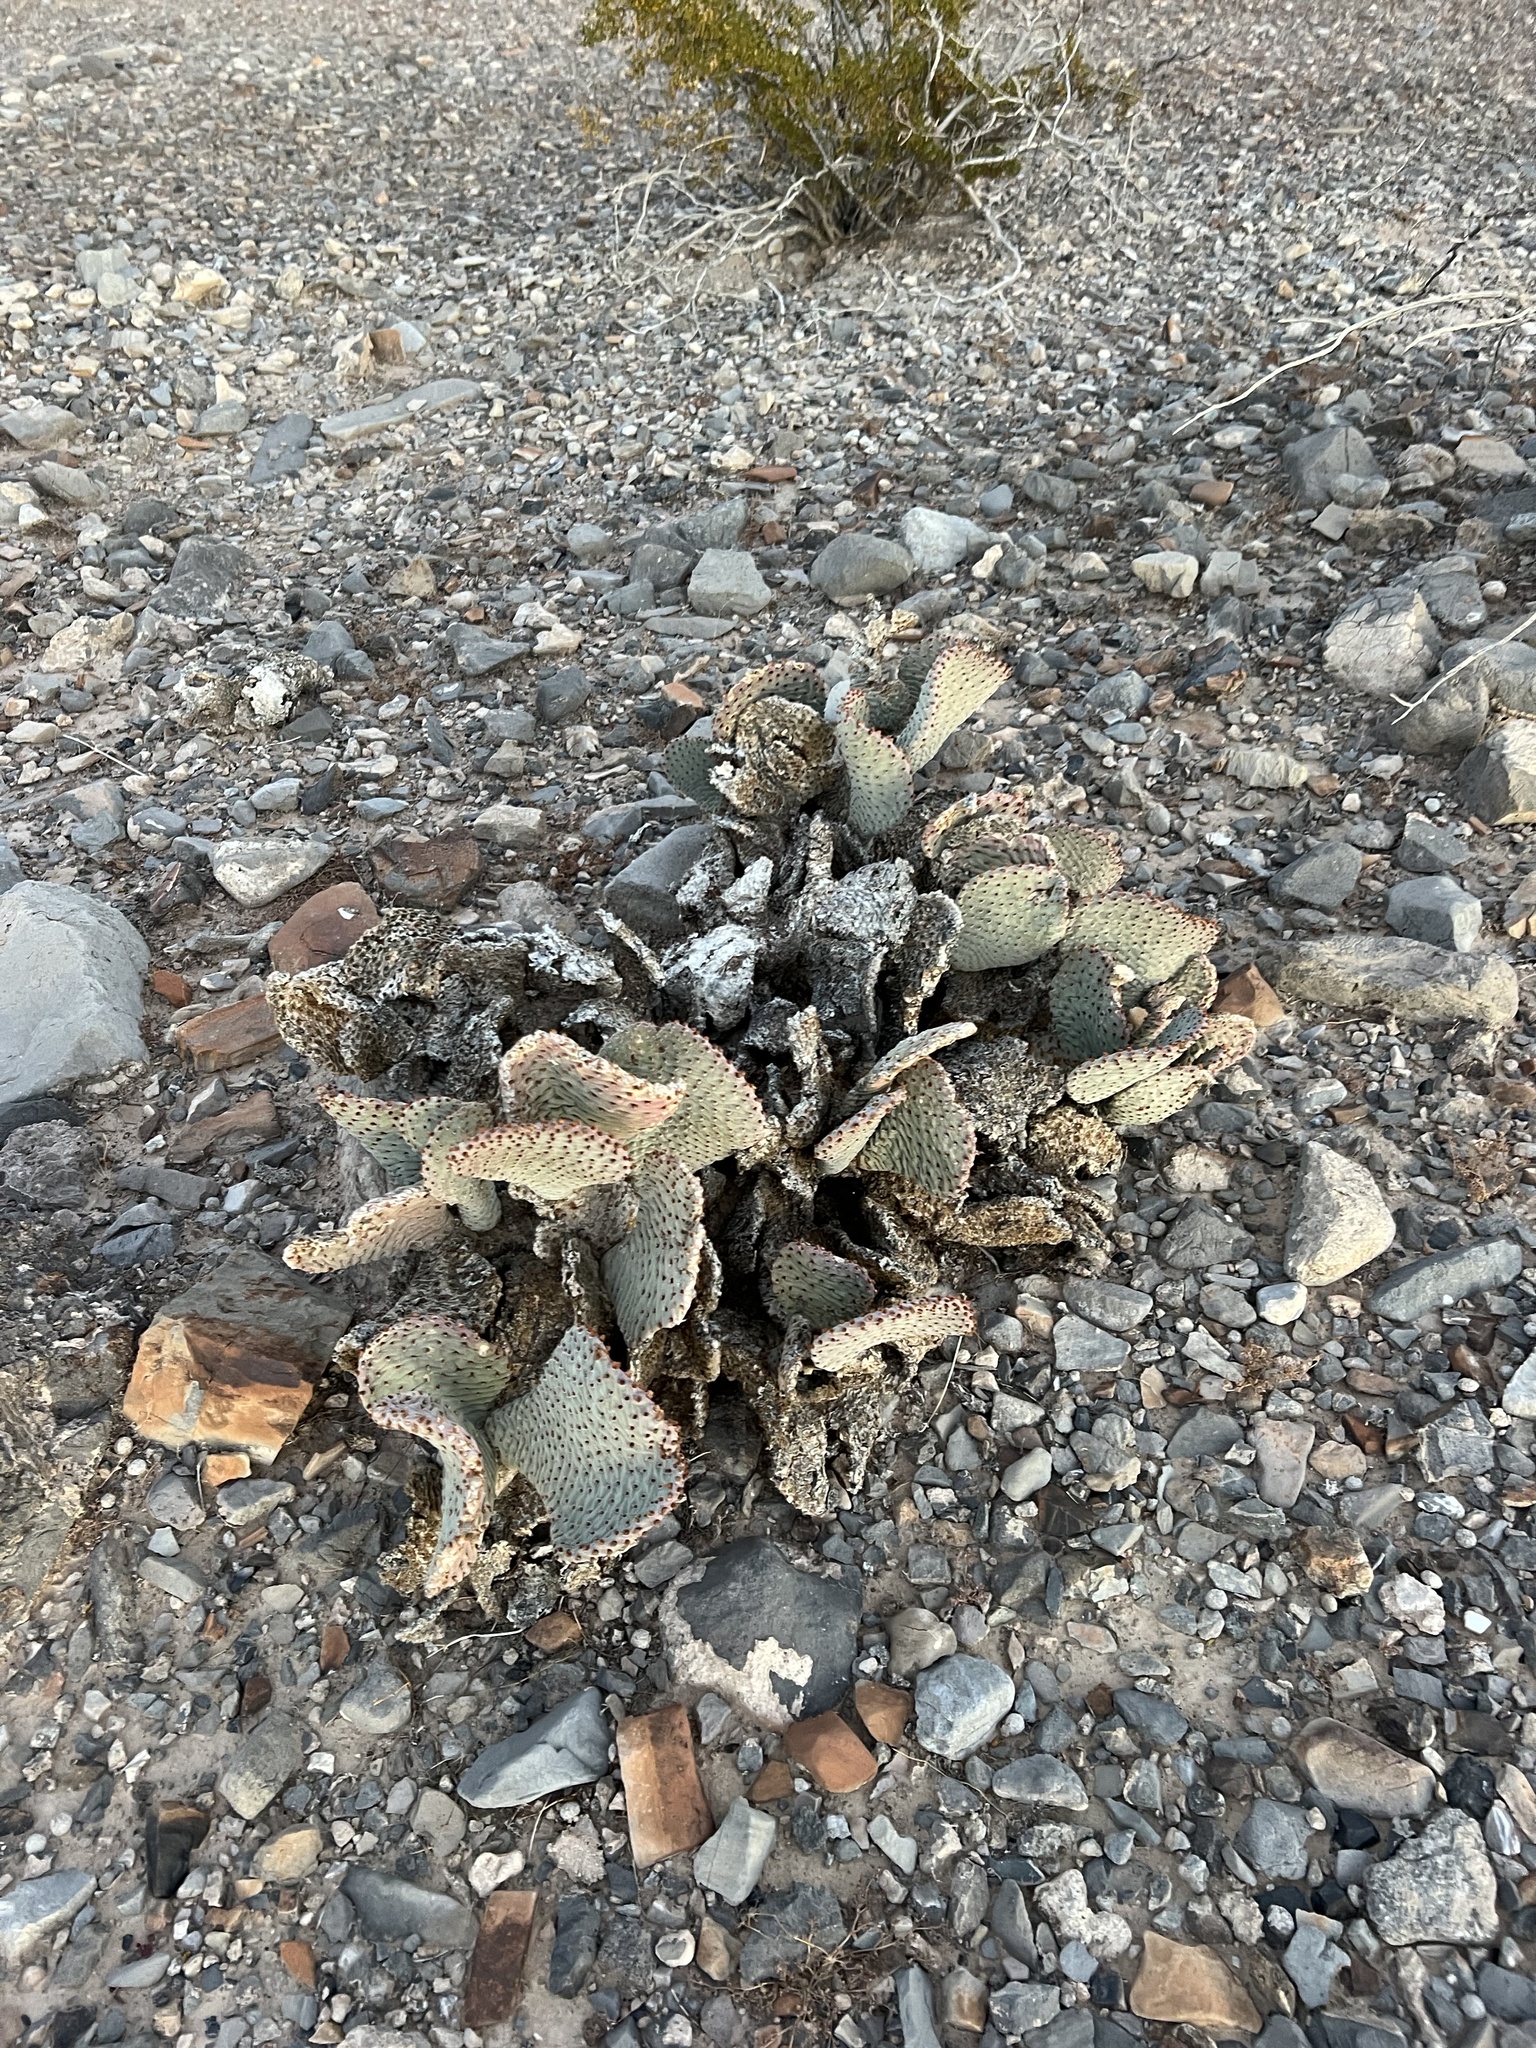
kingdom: Plantae
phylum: Tracheophyta
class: Magnoliopsida
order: Caryophyllales
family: Cactaceae
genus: Opuntia
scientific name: Opuntia basilaris
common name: Beavertail prickly-pear
